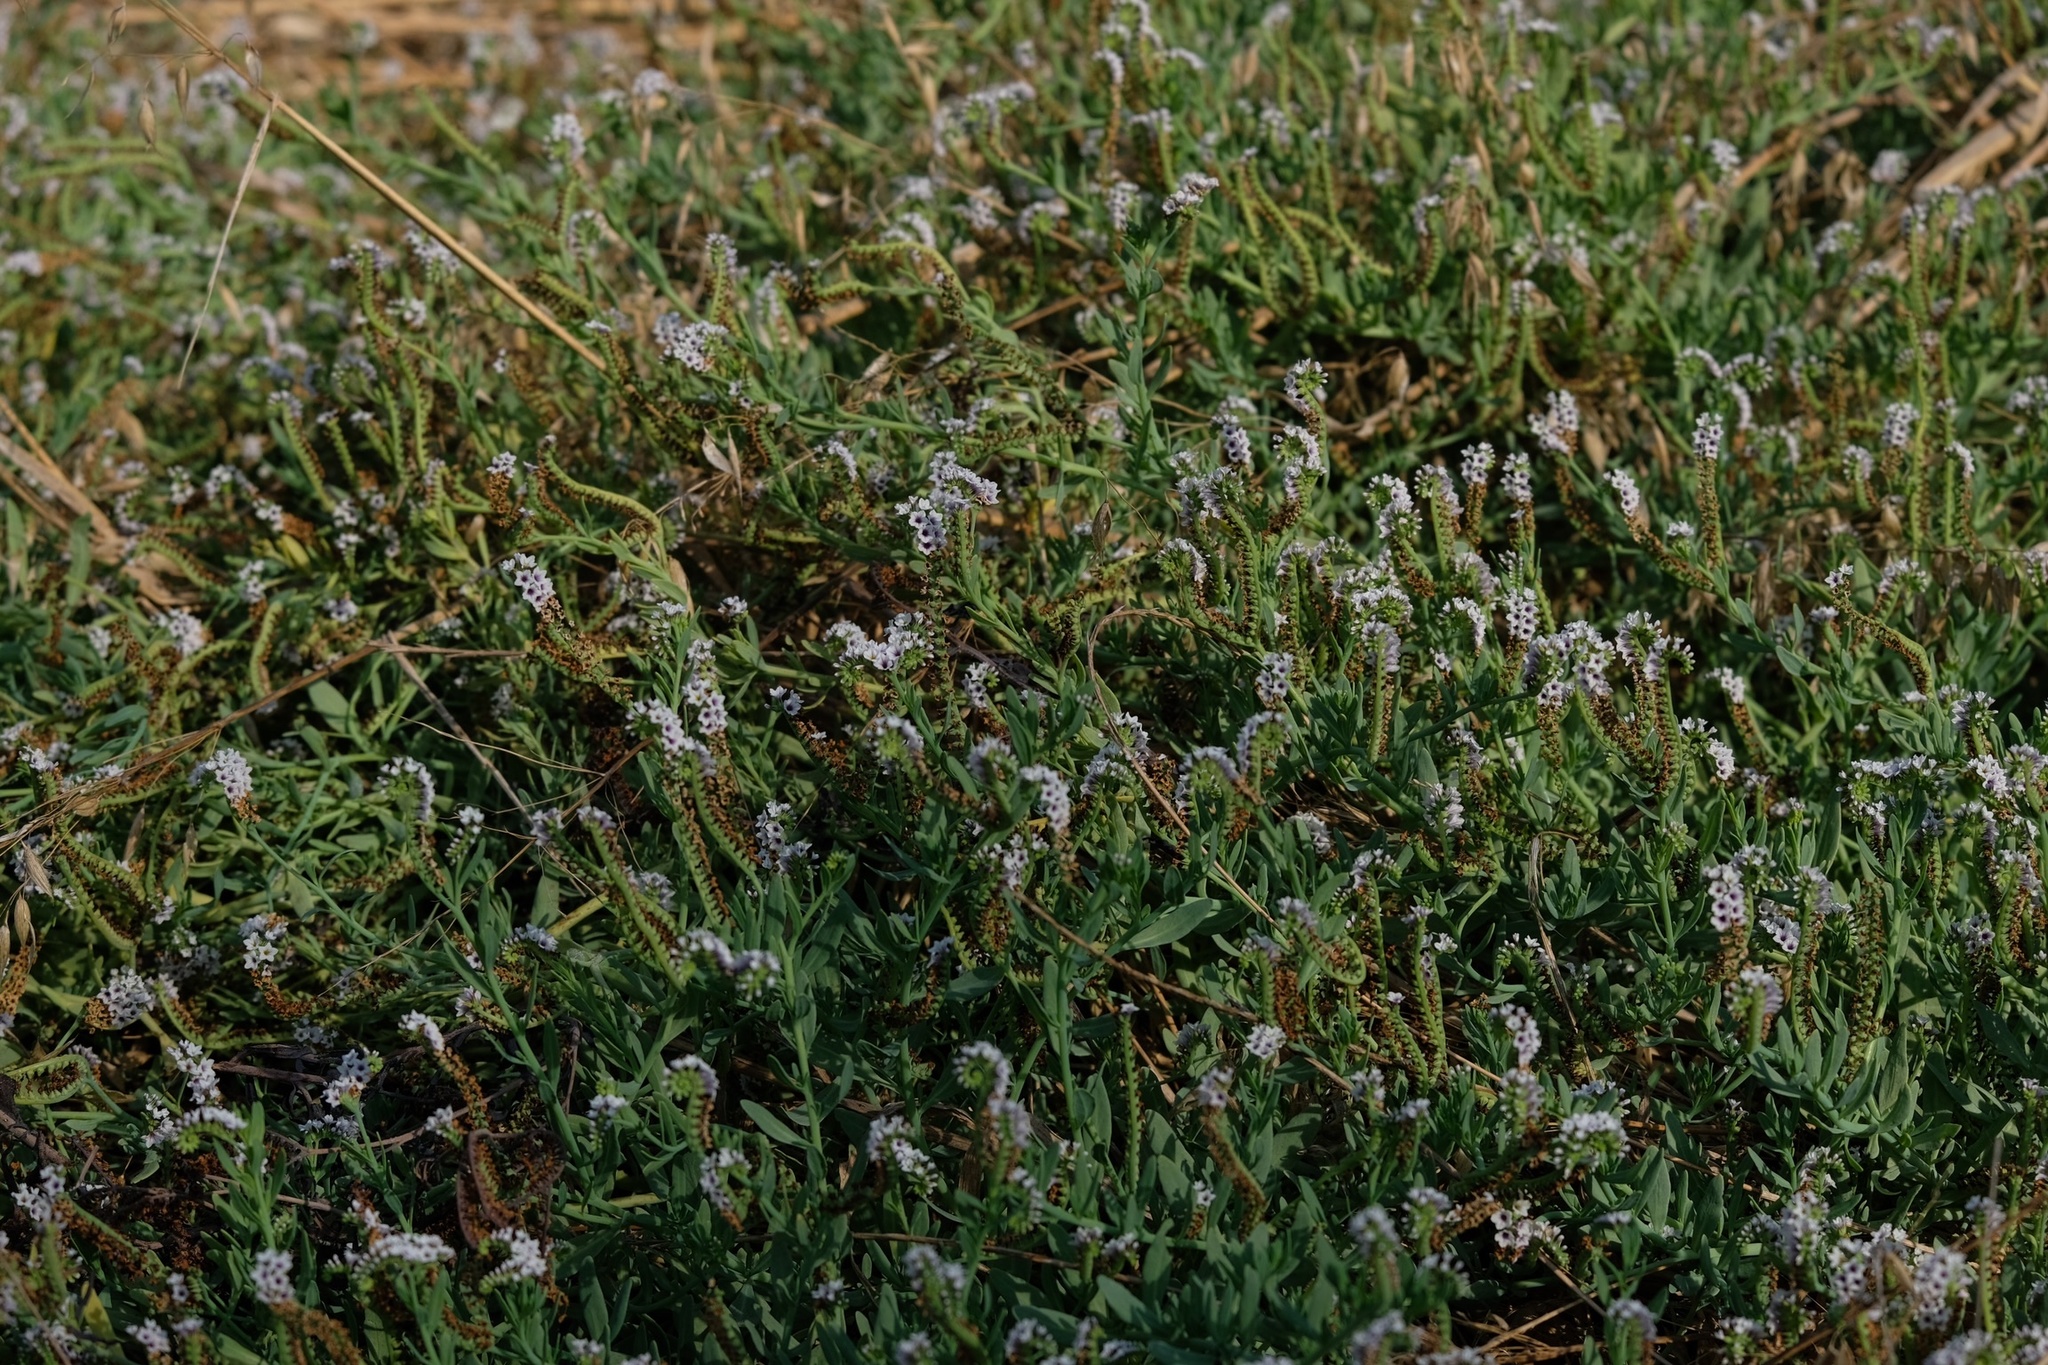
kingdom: Plantae
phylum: Tracheophyta
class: Magnoliopsida
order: Boraginales
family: Heliotropiaceae
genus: Heliotropium
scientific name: Heliotropium curassavicum
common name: Seaside heliotrope
